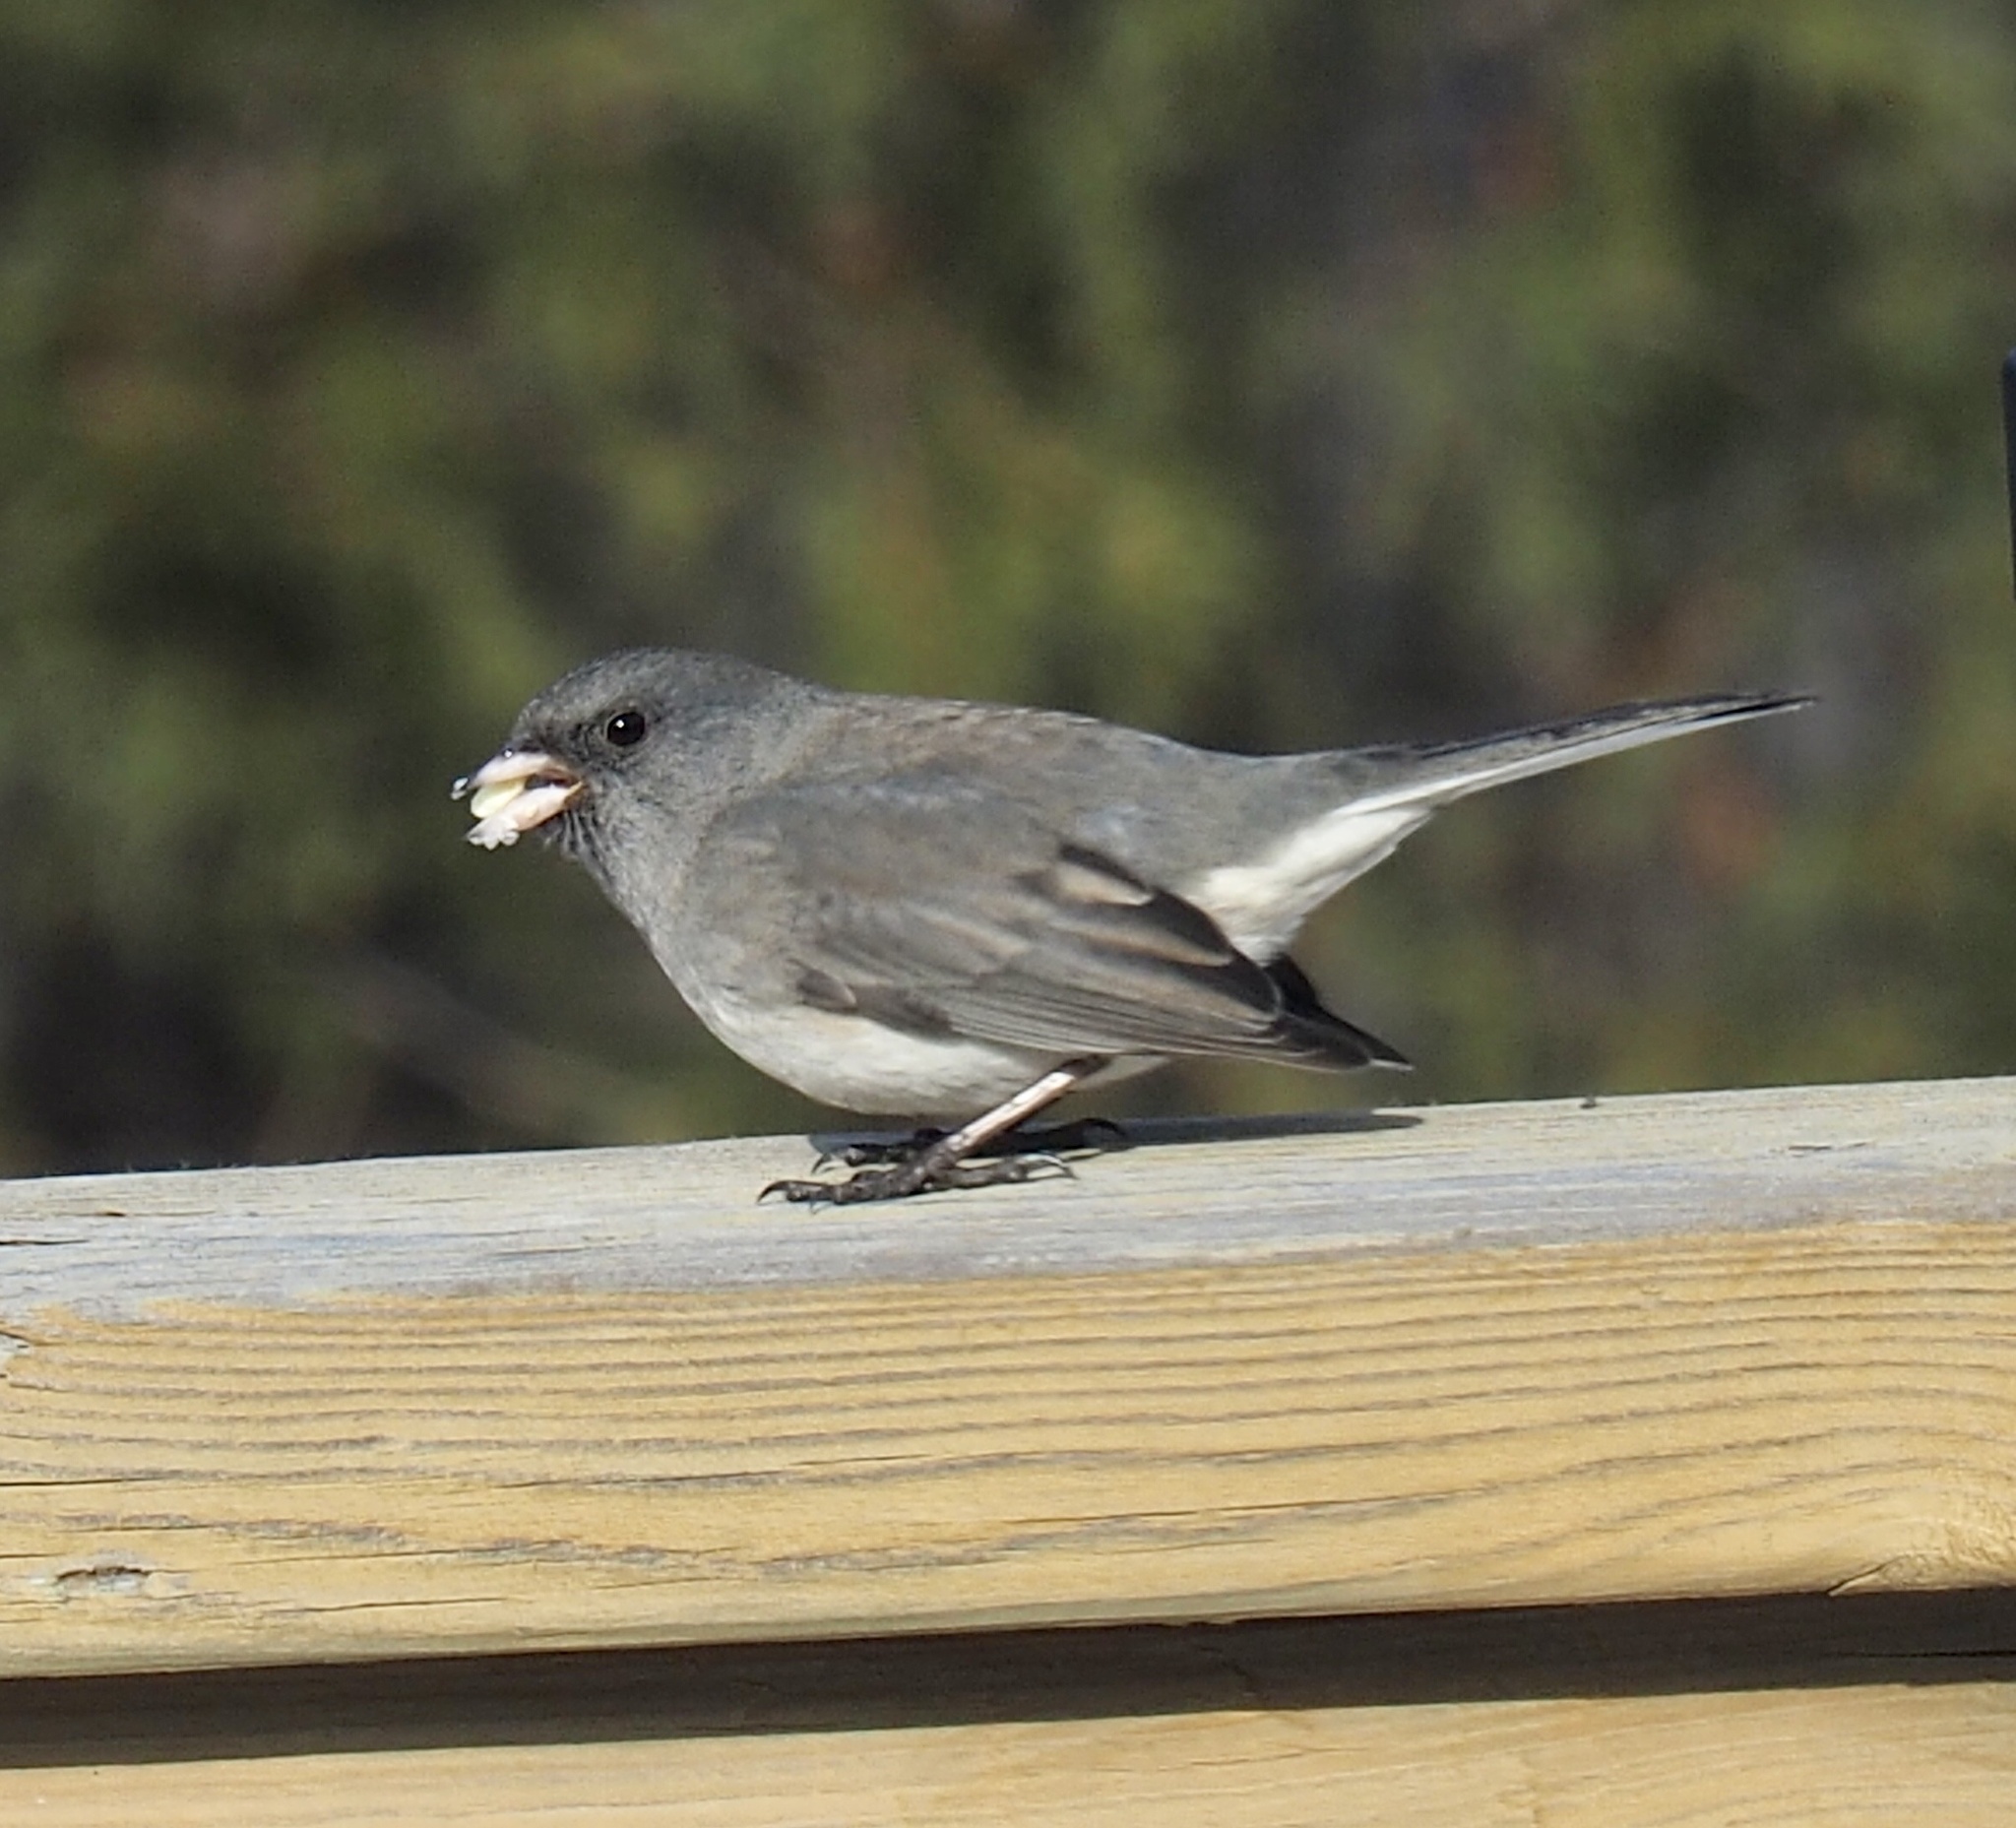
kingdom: Animalia
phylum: Chordata
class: Aves
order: Passeriformes
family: Passerellidae
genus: Junco
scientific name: Junco hyemalis
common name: Dark-eyed junco
